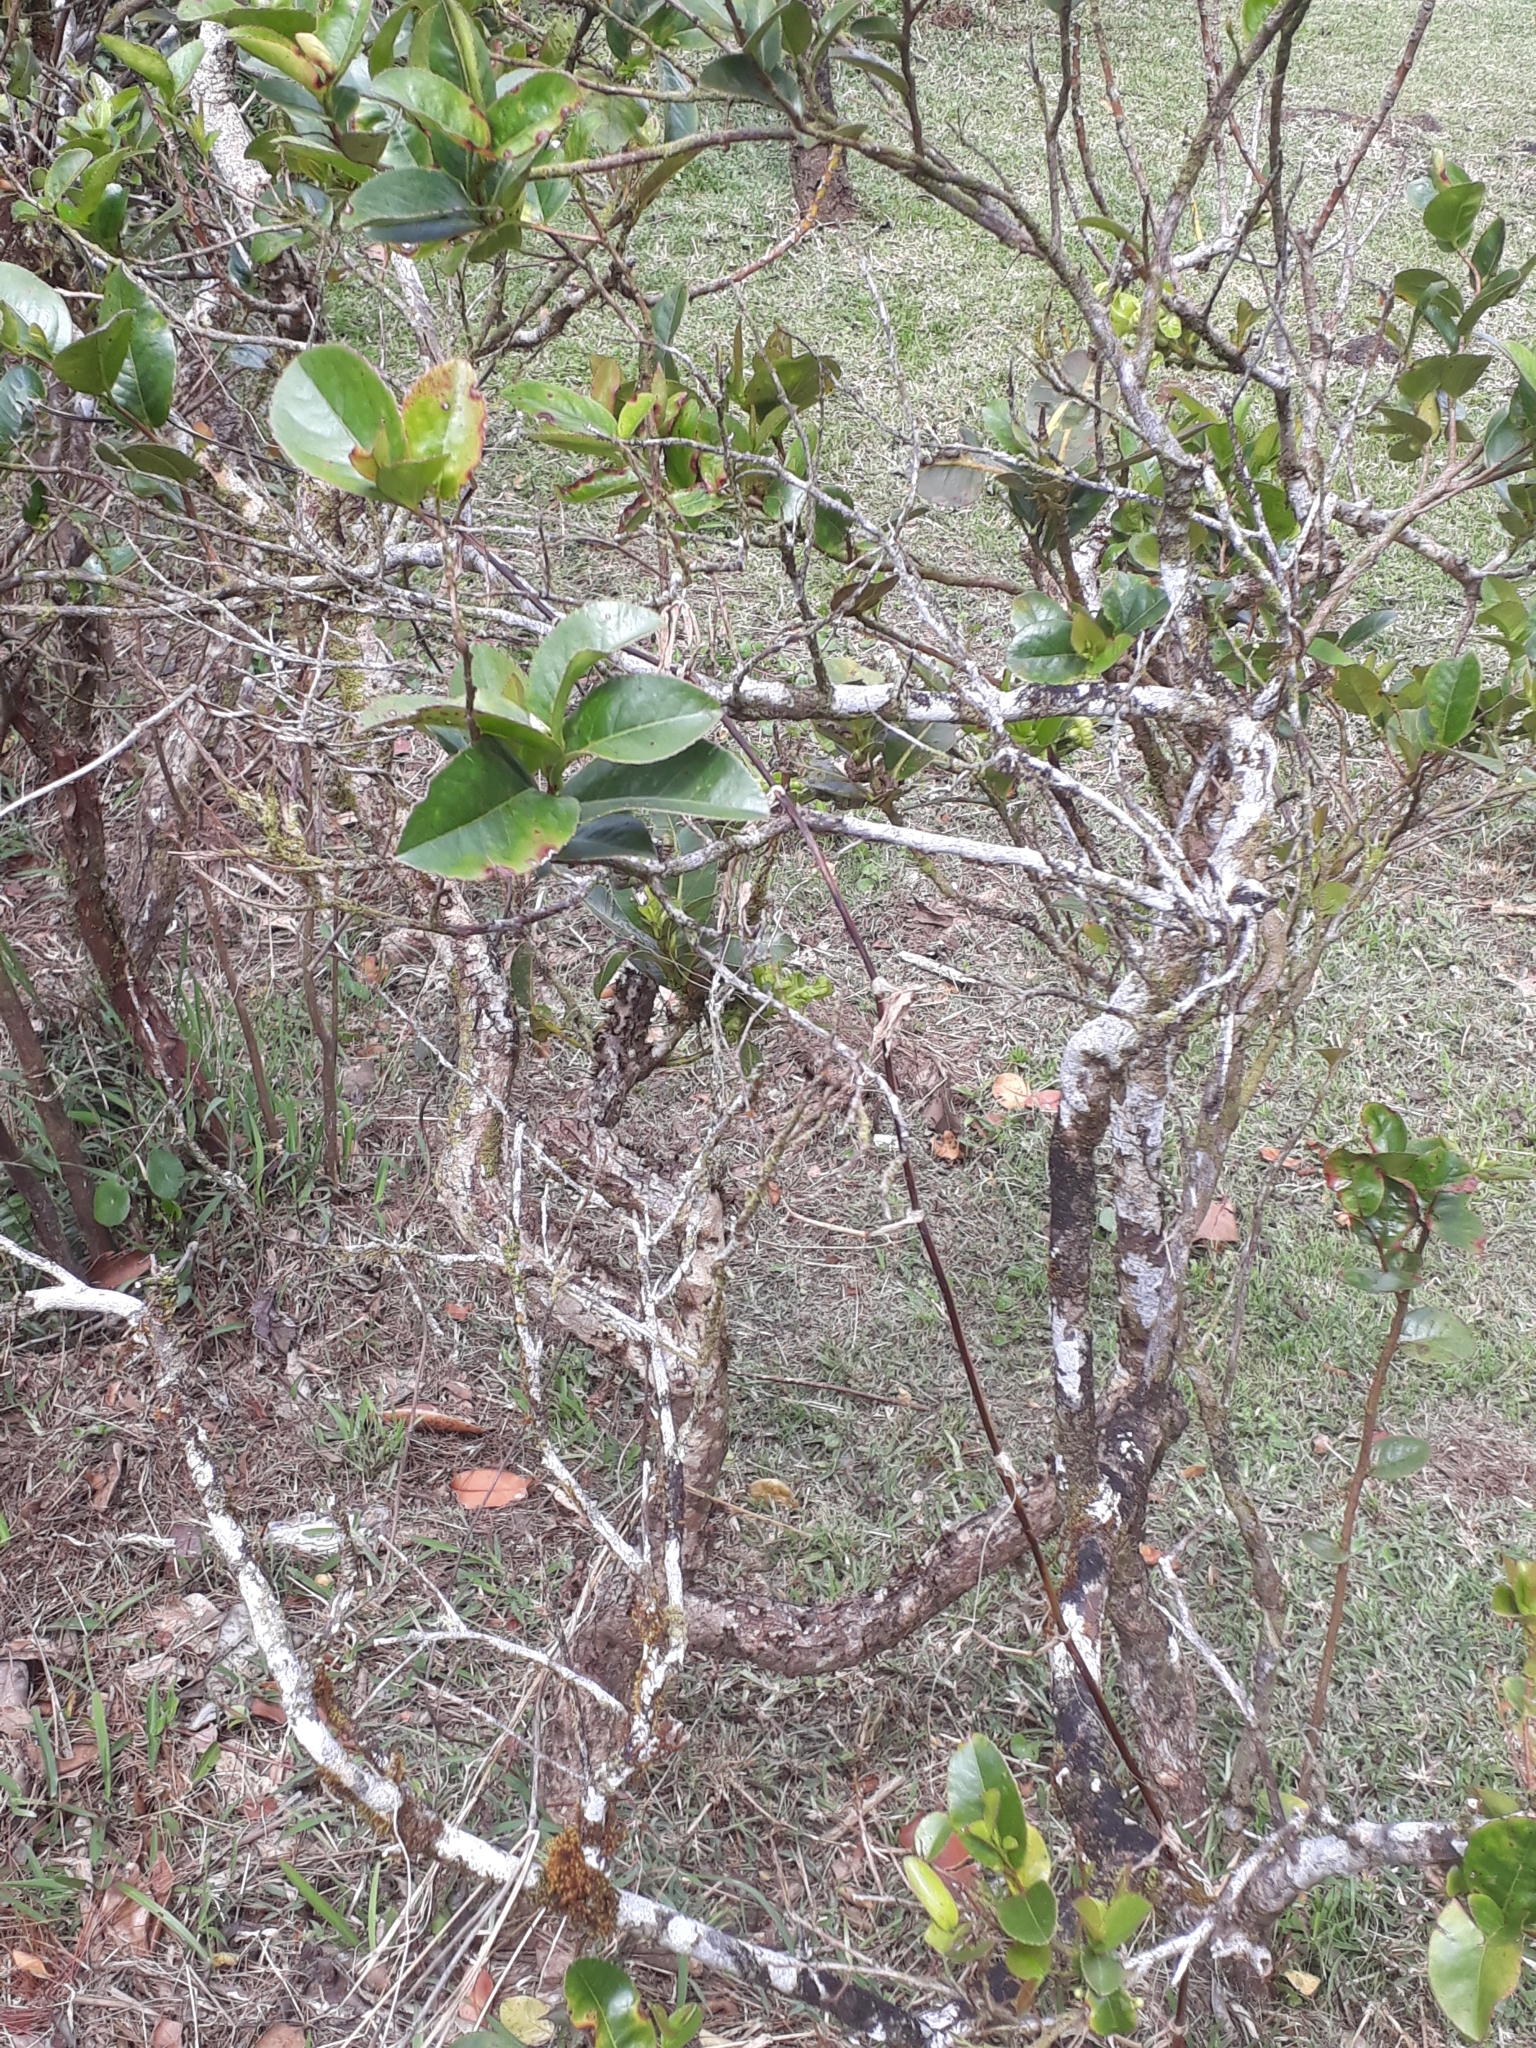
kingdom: Plantae
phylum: Tracheophyta
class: Magnoliopsida
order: Crossosomatales
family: Aphloiaceae
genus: Aphloia
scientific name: Aphloia theiformis
